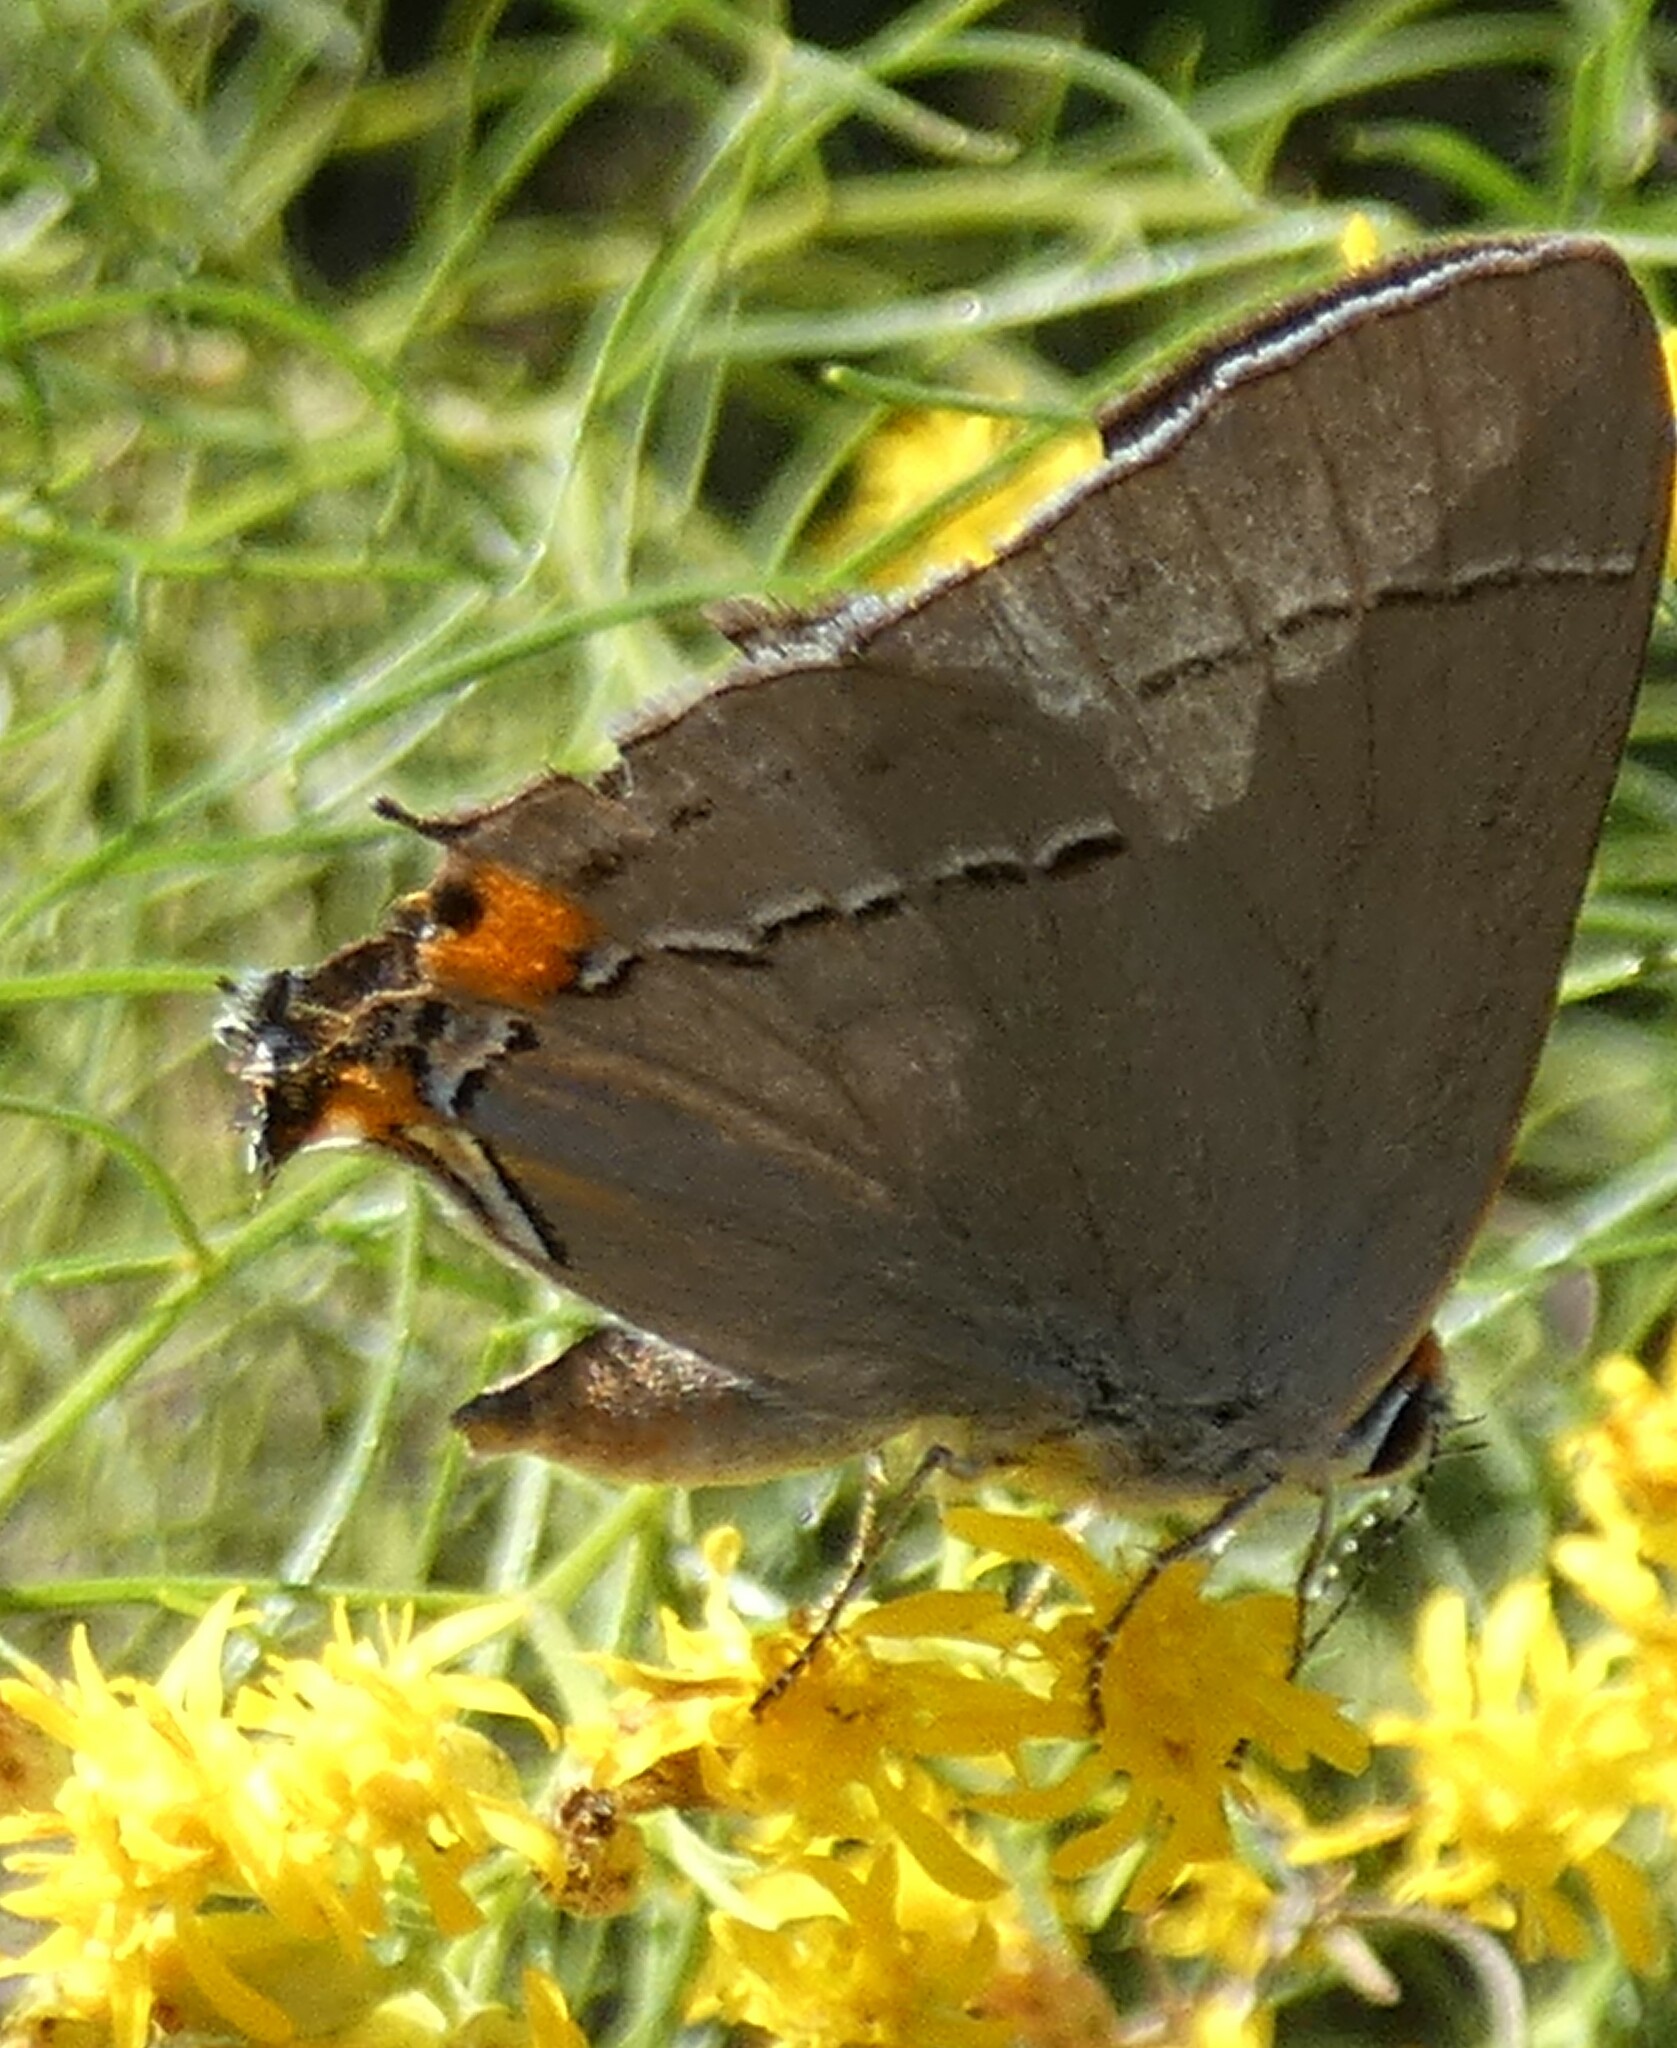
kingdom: Animalia
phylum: Arthropoda
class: Insecta
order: Lepidoptera
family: Lycaenidae
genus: Strymon
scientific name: Strymon melinus
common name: Gray hairstreak
